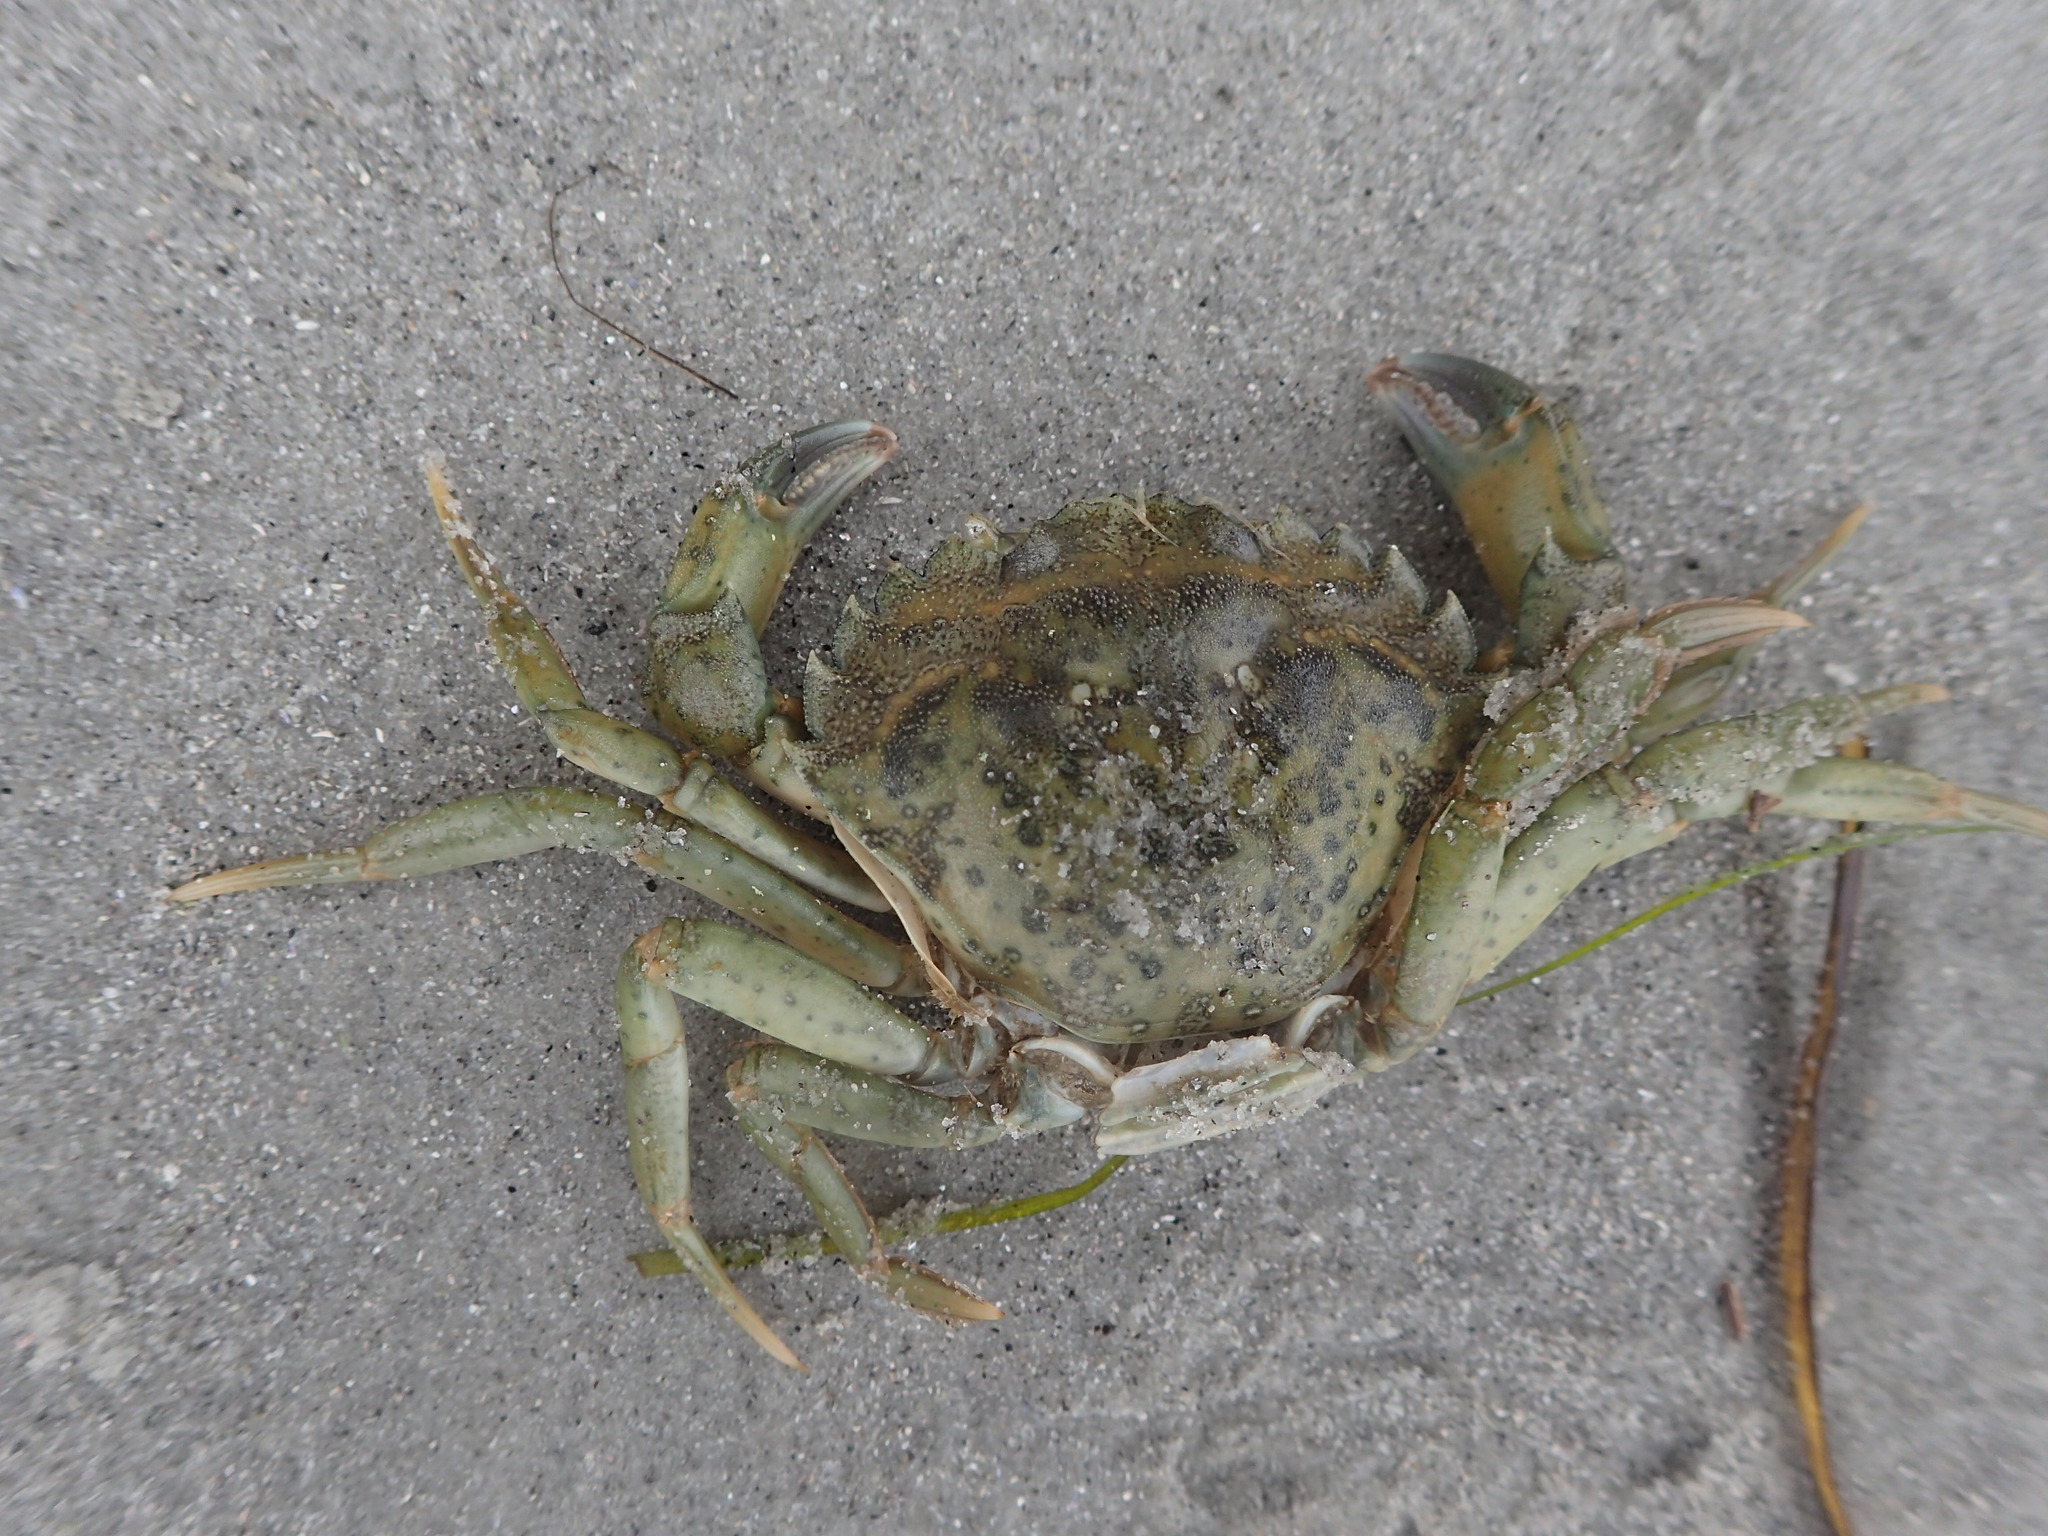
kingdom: Animalia
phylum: Arthropoda
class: Malacostraca
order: Decapoda
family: Carcinidae
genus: Carcinus
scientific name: Carcinus maenas
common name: European green crab
